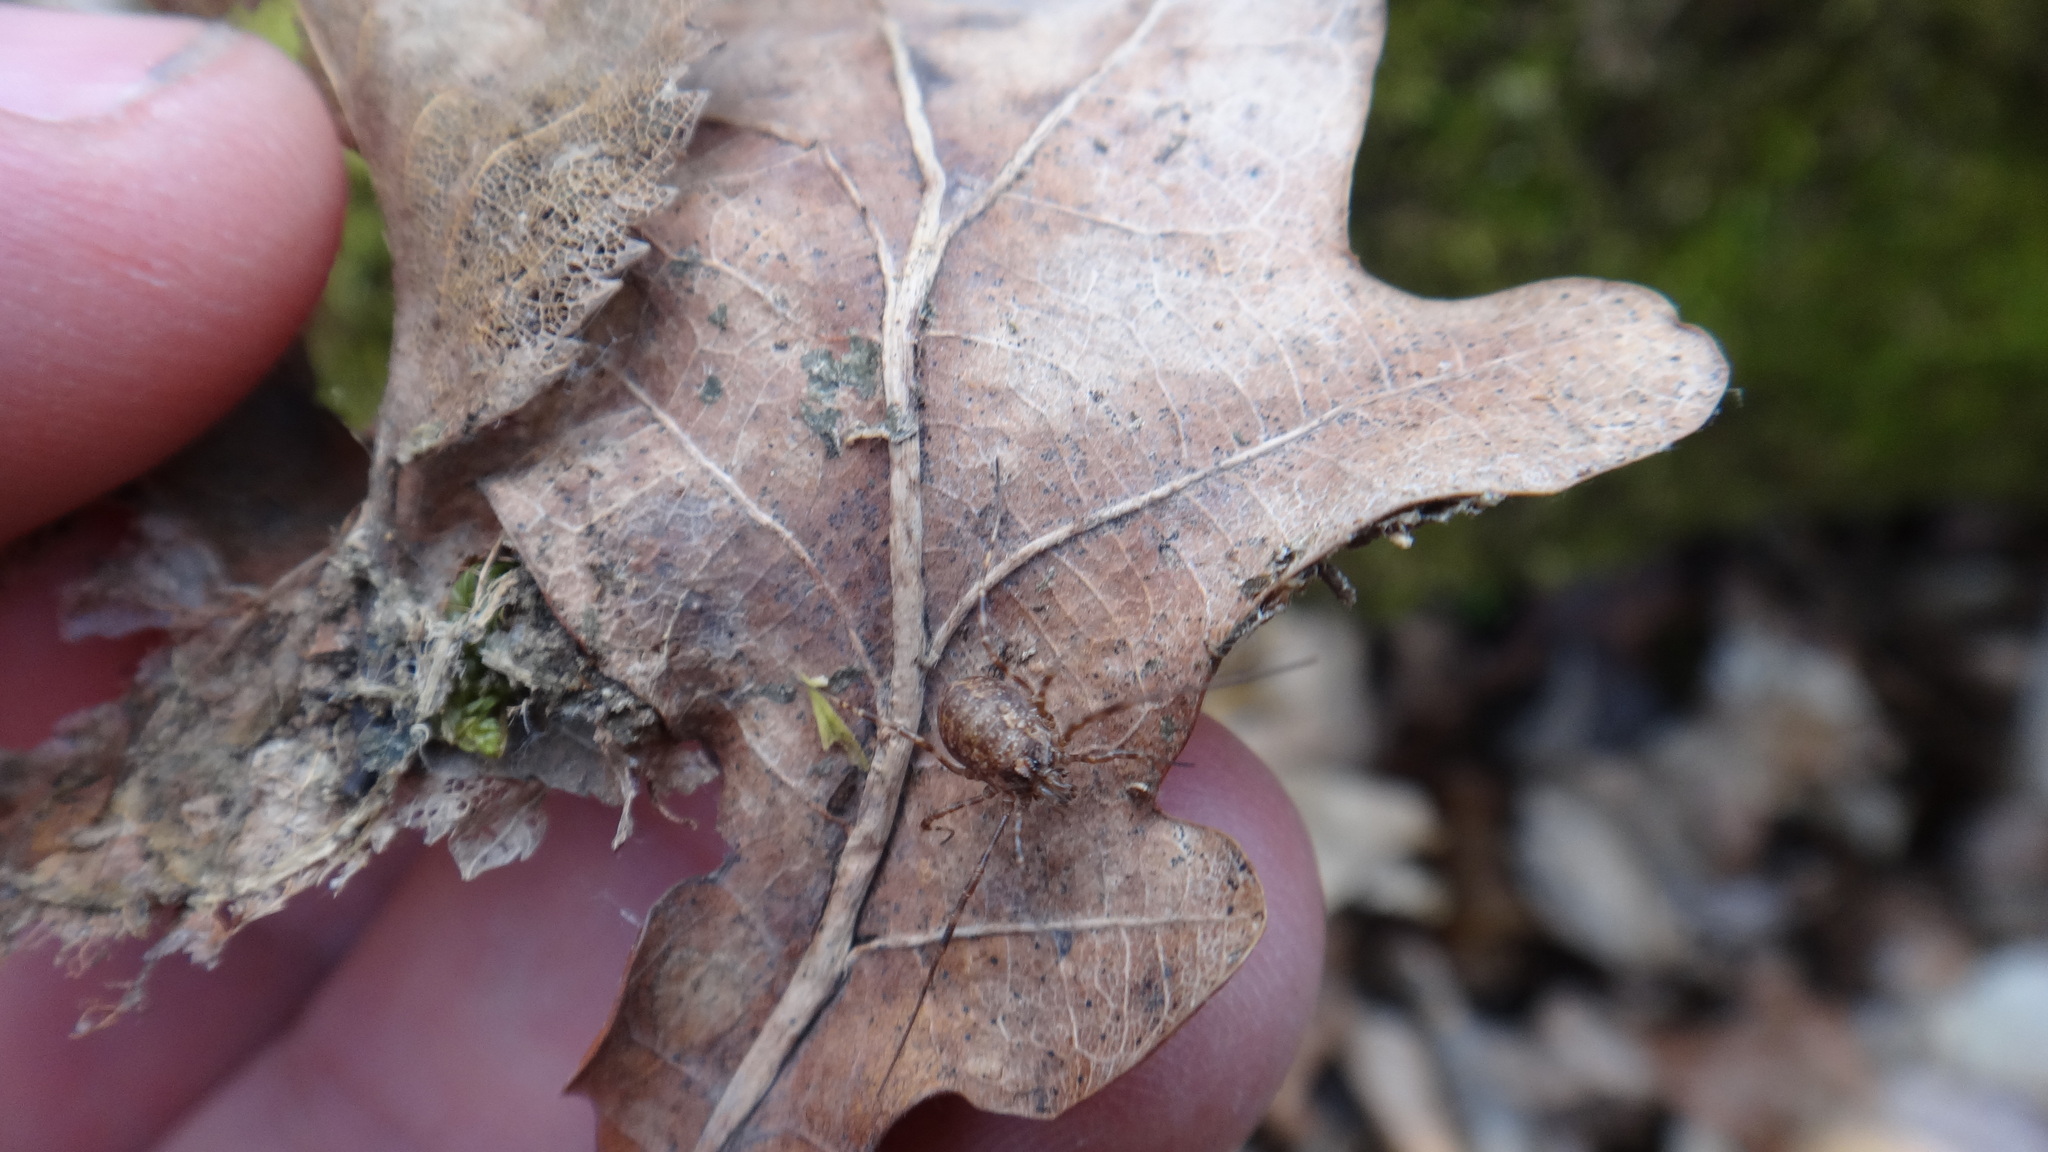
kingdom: Animalia
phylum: Arthropoda
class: Arachnida
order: Opiliones
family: Phalangiidae
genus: Rilaena
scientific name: Rilaena triangularis
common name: Spring harvestman
